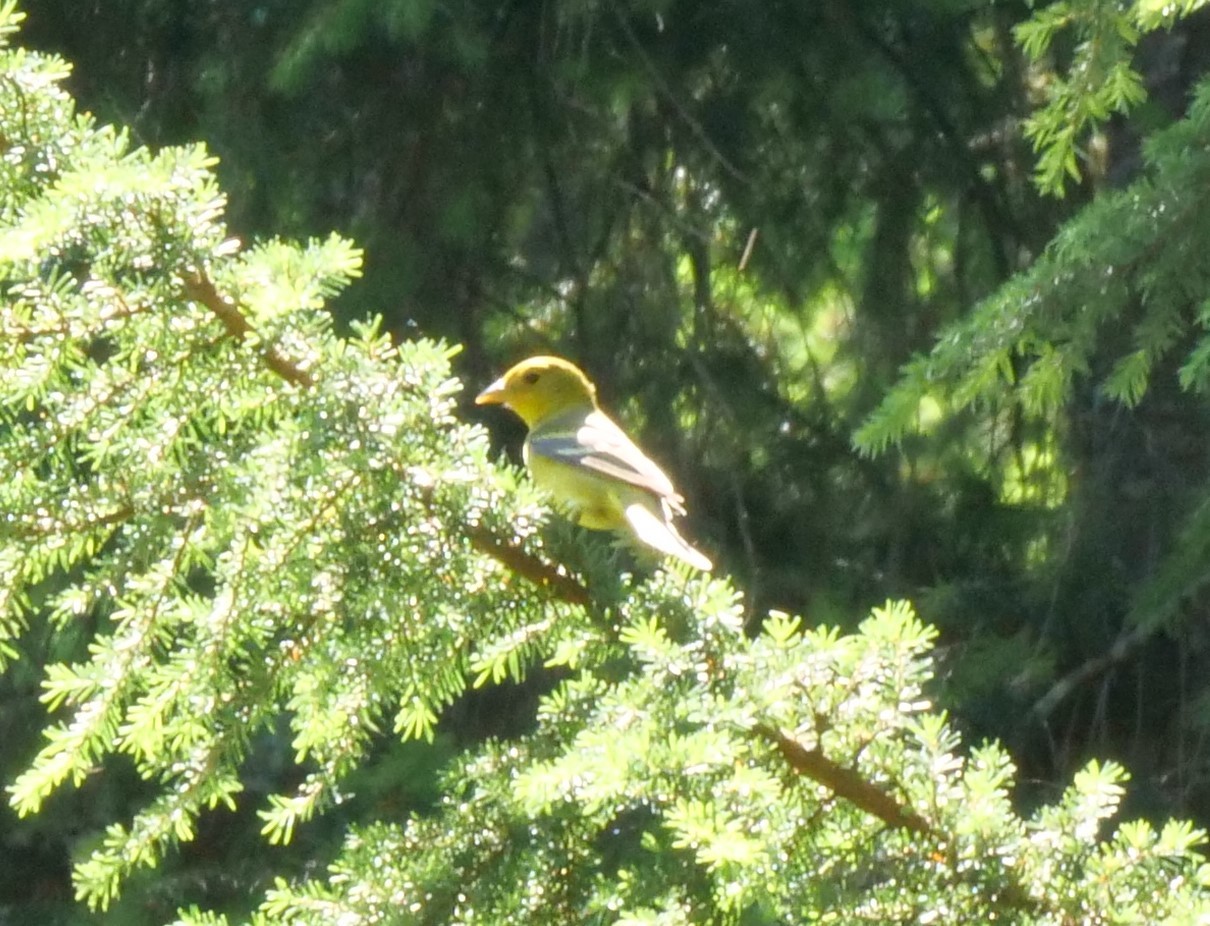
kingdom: Animalia
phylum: Chordata
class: Aves
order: Passeriformes
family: Cardinalidae
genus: Piranga
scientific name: Piranga ludoviciana
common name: Western tanager
